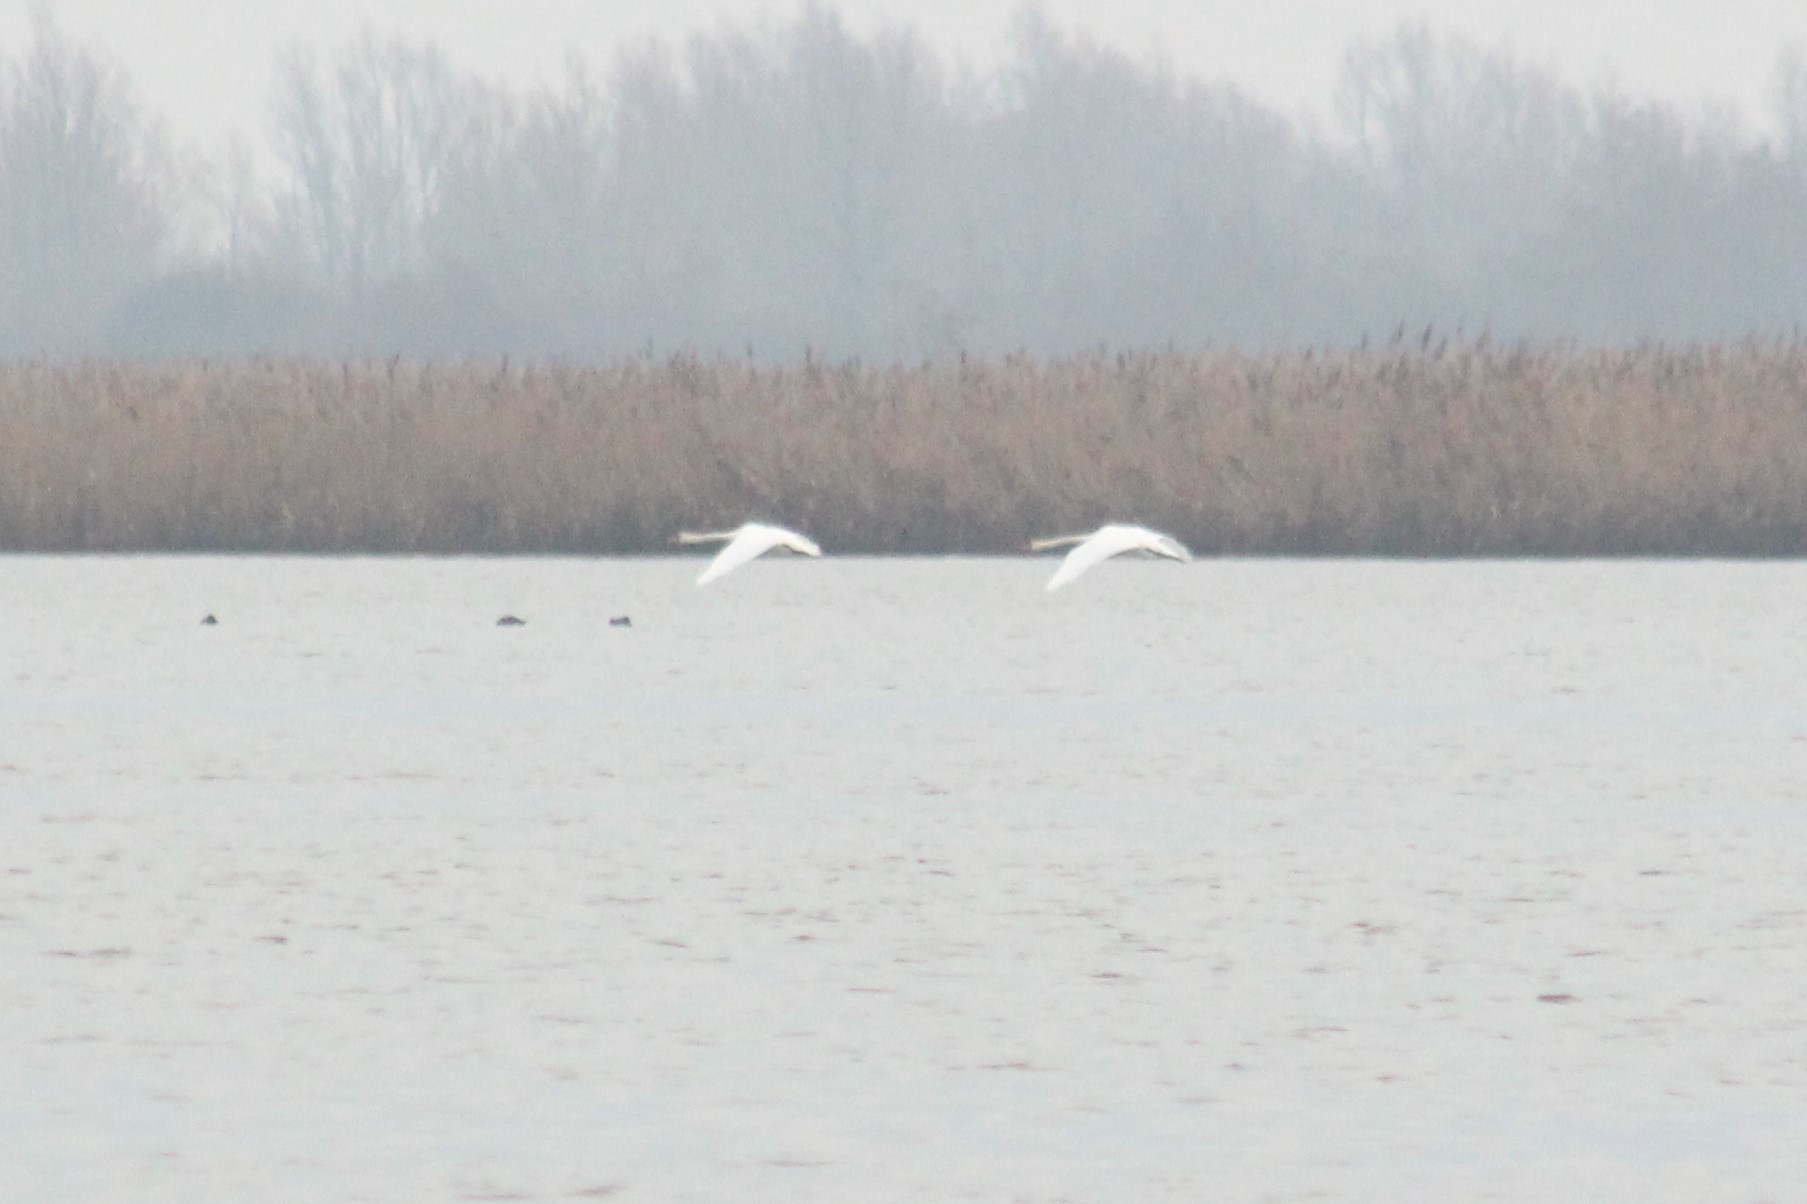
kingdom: Animalia
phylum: Chordata
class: Aves
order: Anseriformes
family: Anatidae
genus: Cygnus
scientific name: Cygnus olor
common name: Mute swan
